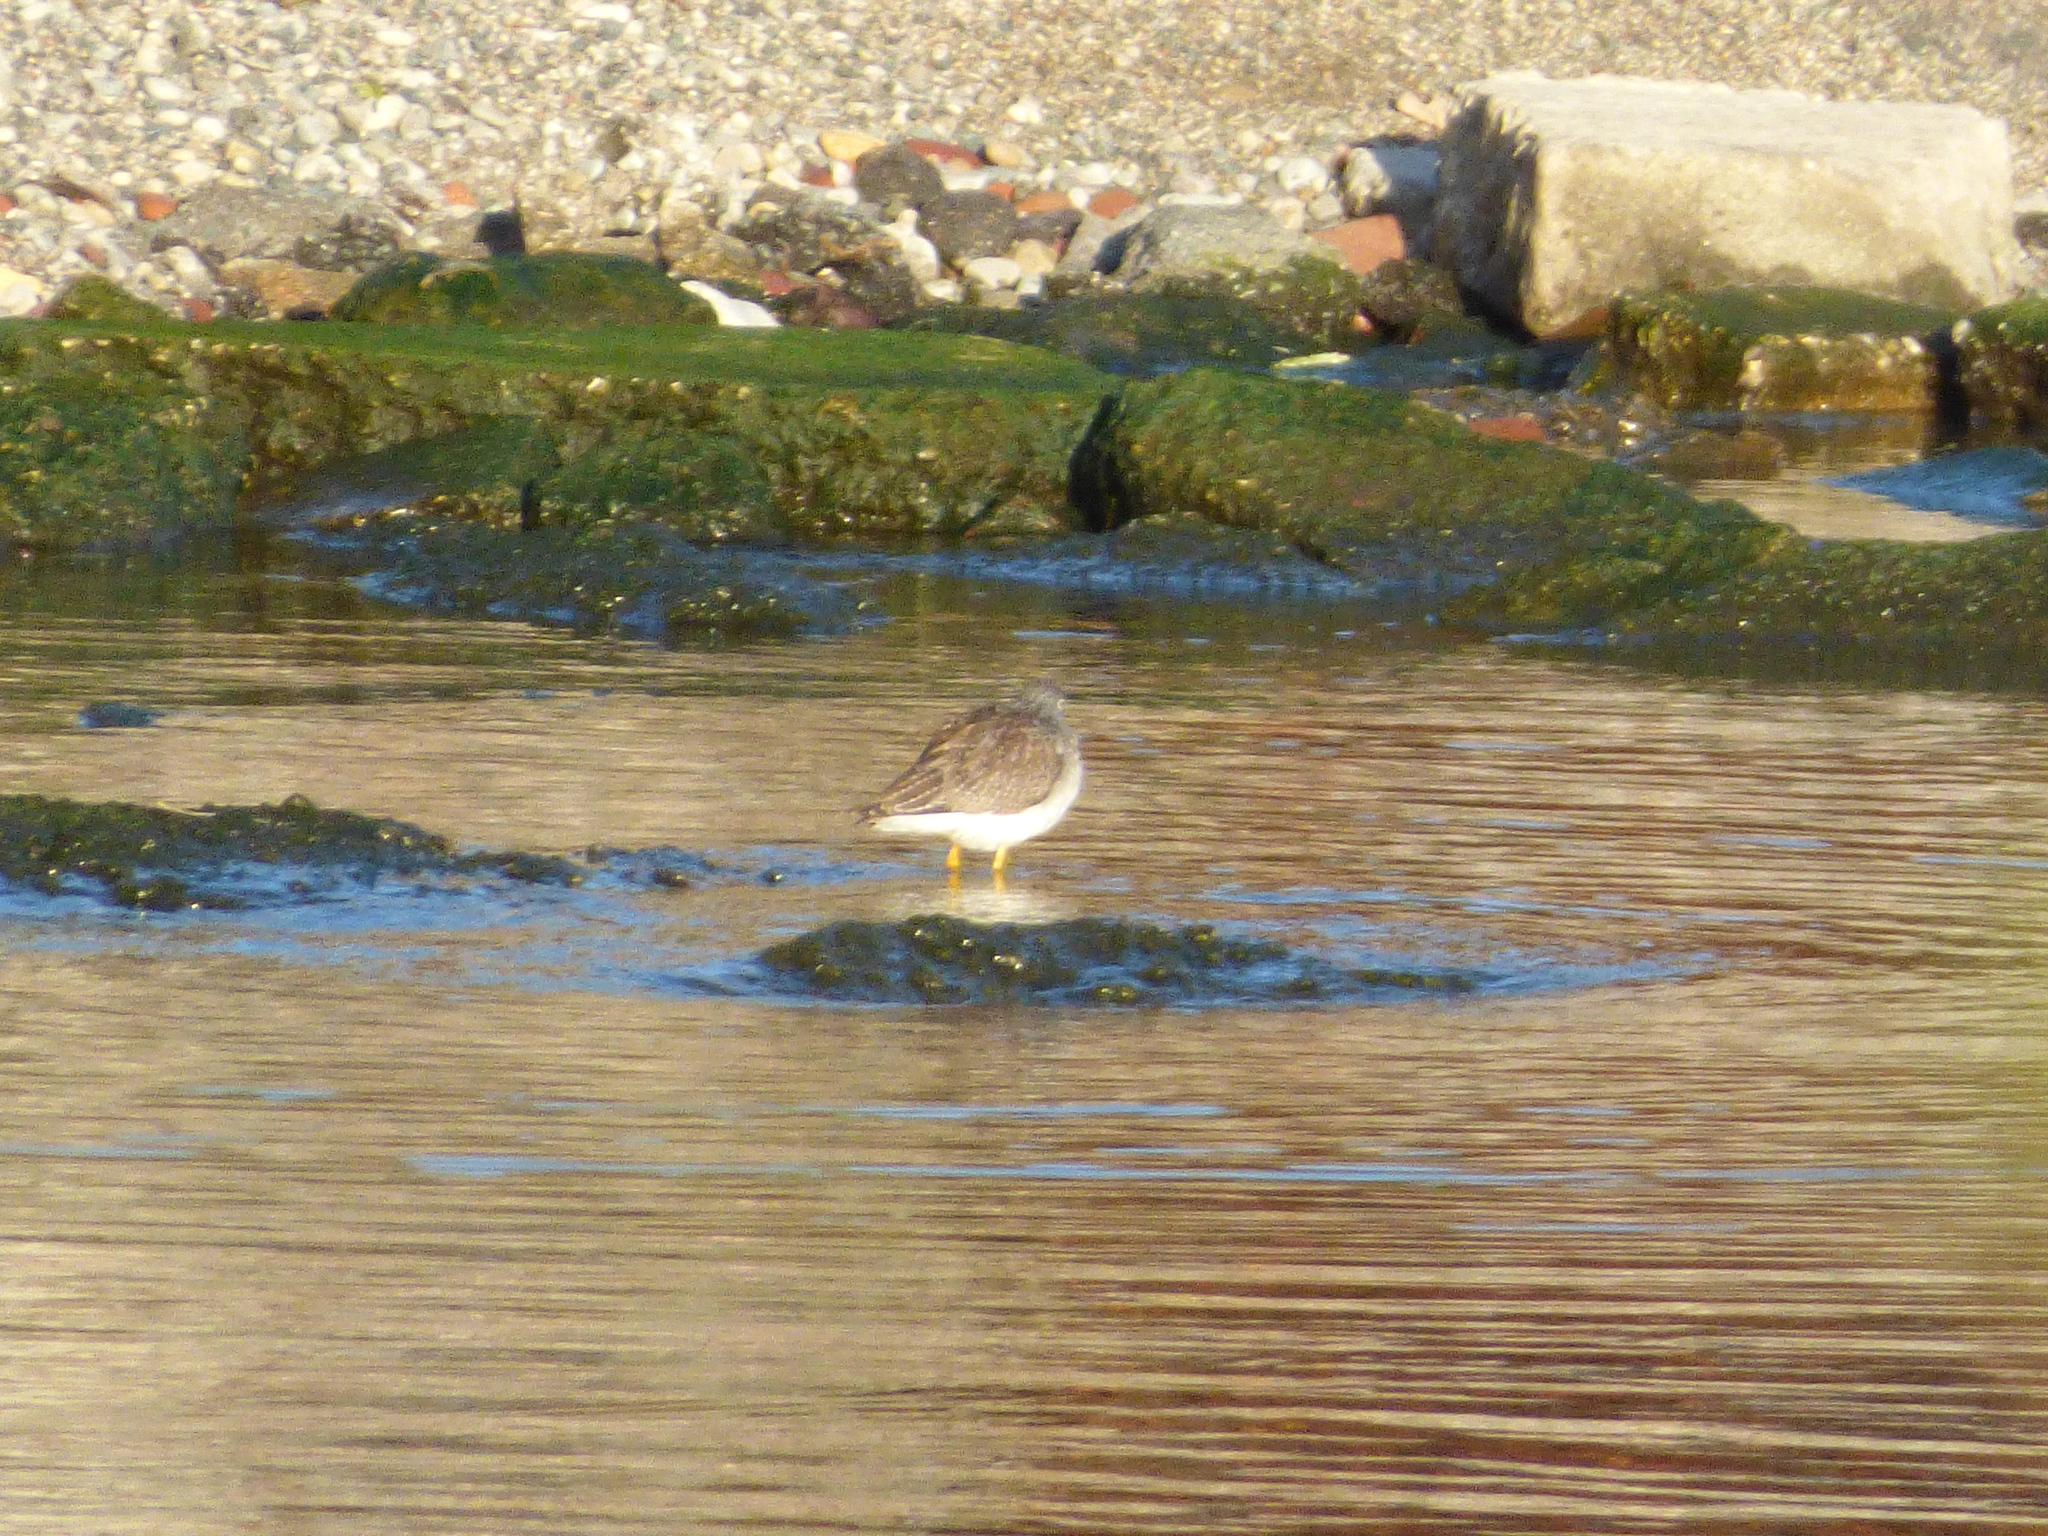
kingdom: Animalia
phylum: Chordata
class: Aves
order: Charadriiformes
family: Scolopacidae
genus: Tringa
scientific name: Tringa melanoleuca
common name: Greater yellowlegs
